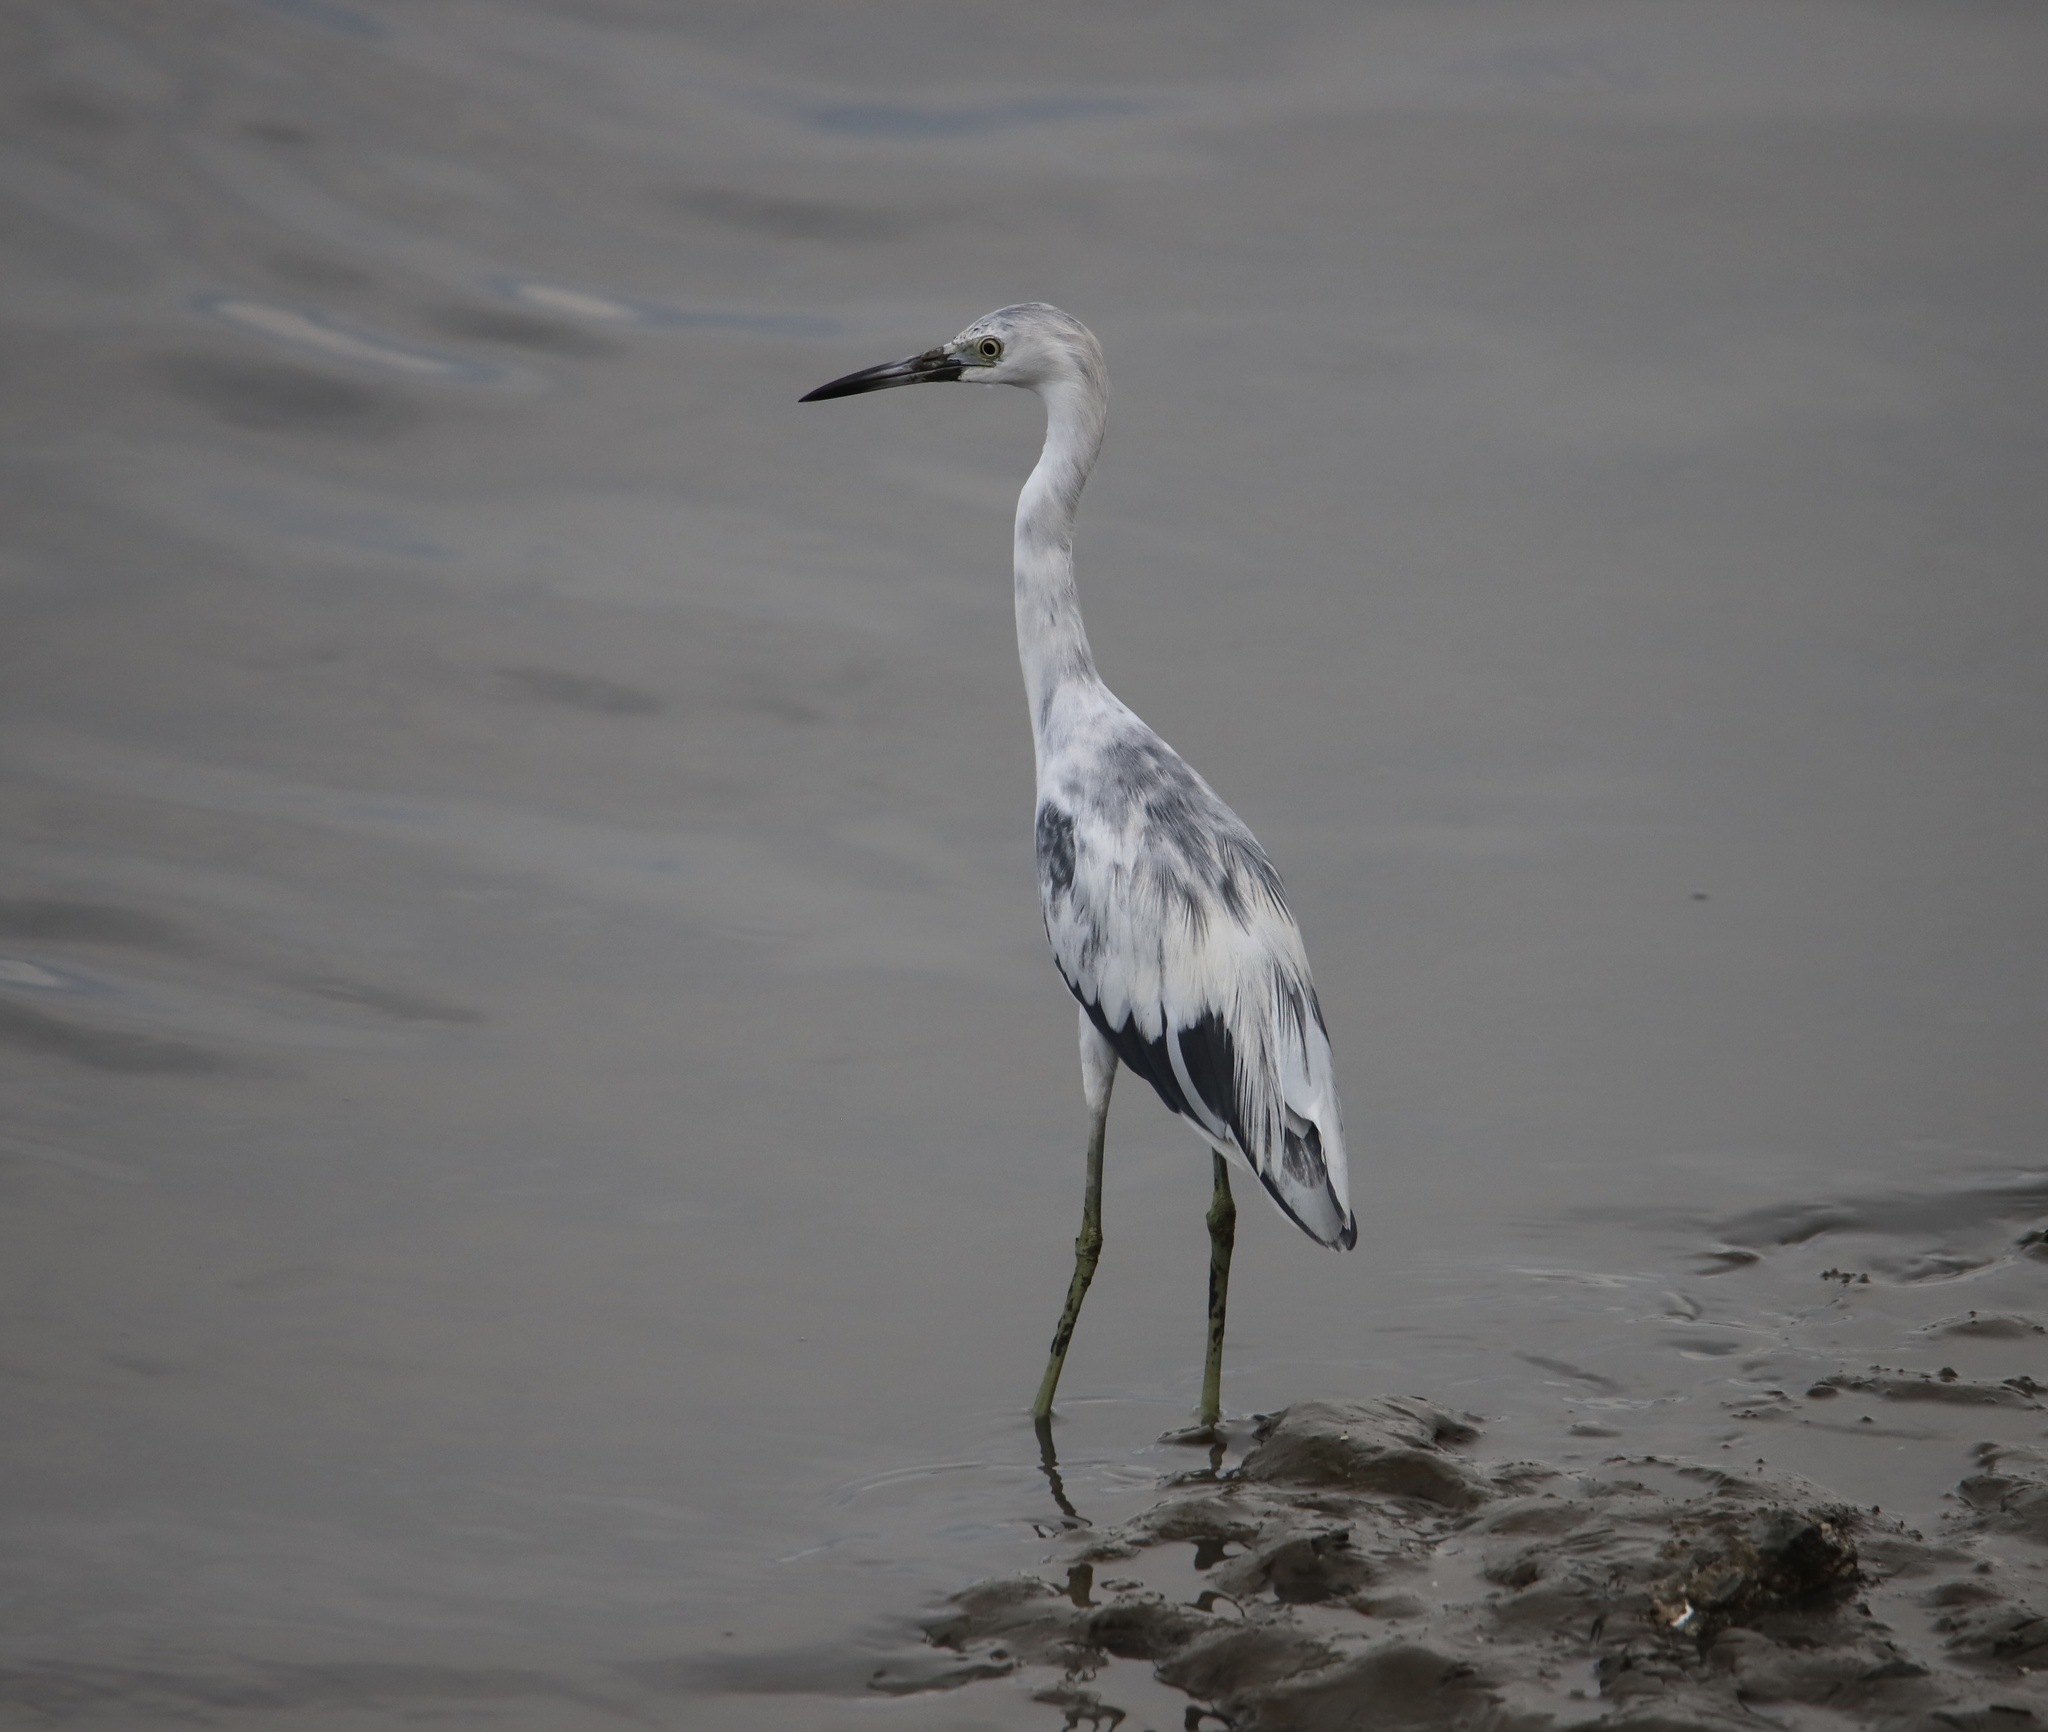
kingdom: Animalia
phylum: Chordata
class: Aves
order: Pelecaniformes
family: Ardeidae
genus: Egretta
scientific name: Egretta caerulea
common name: Little blue heron
